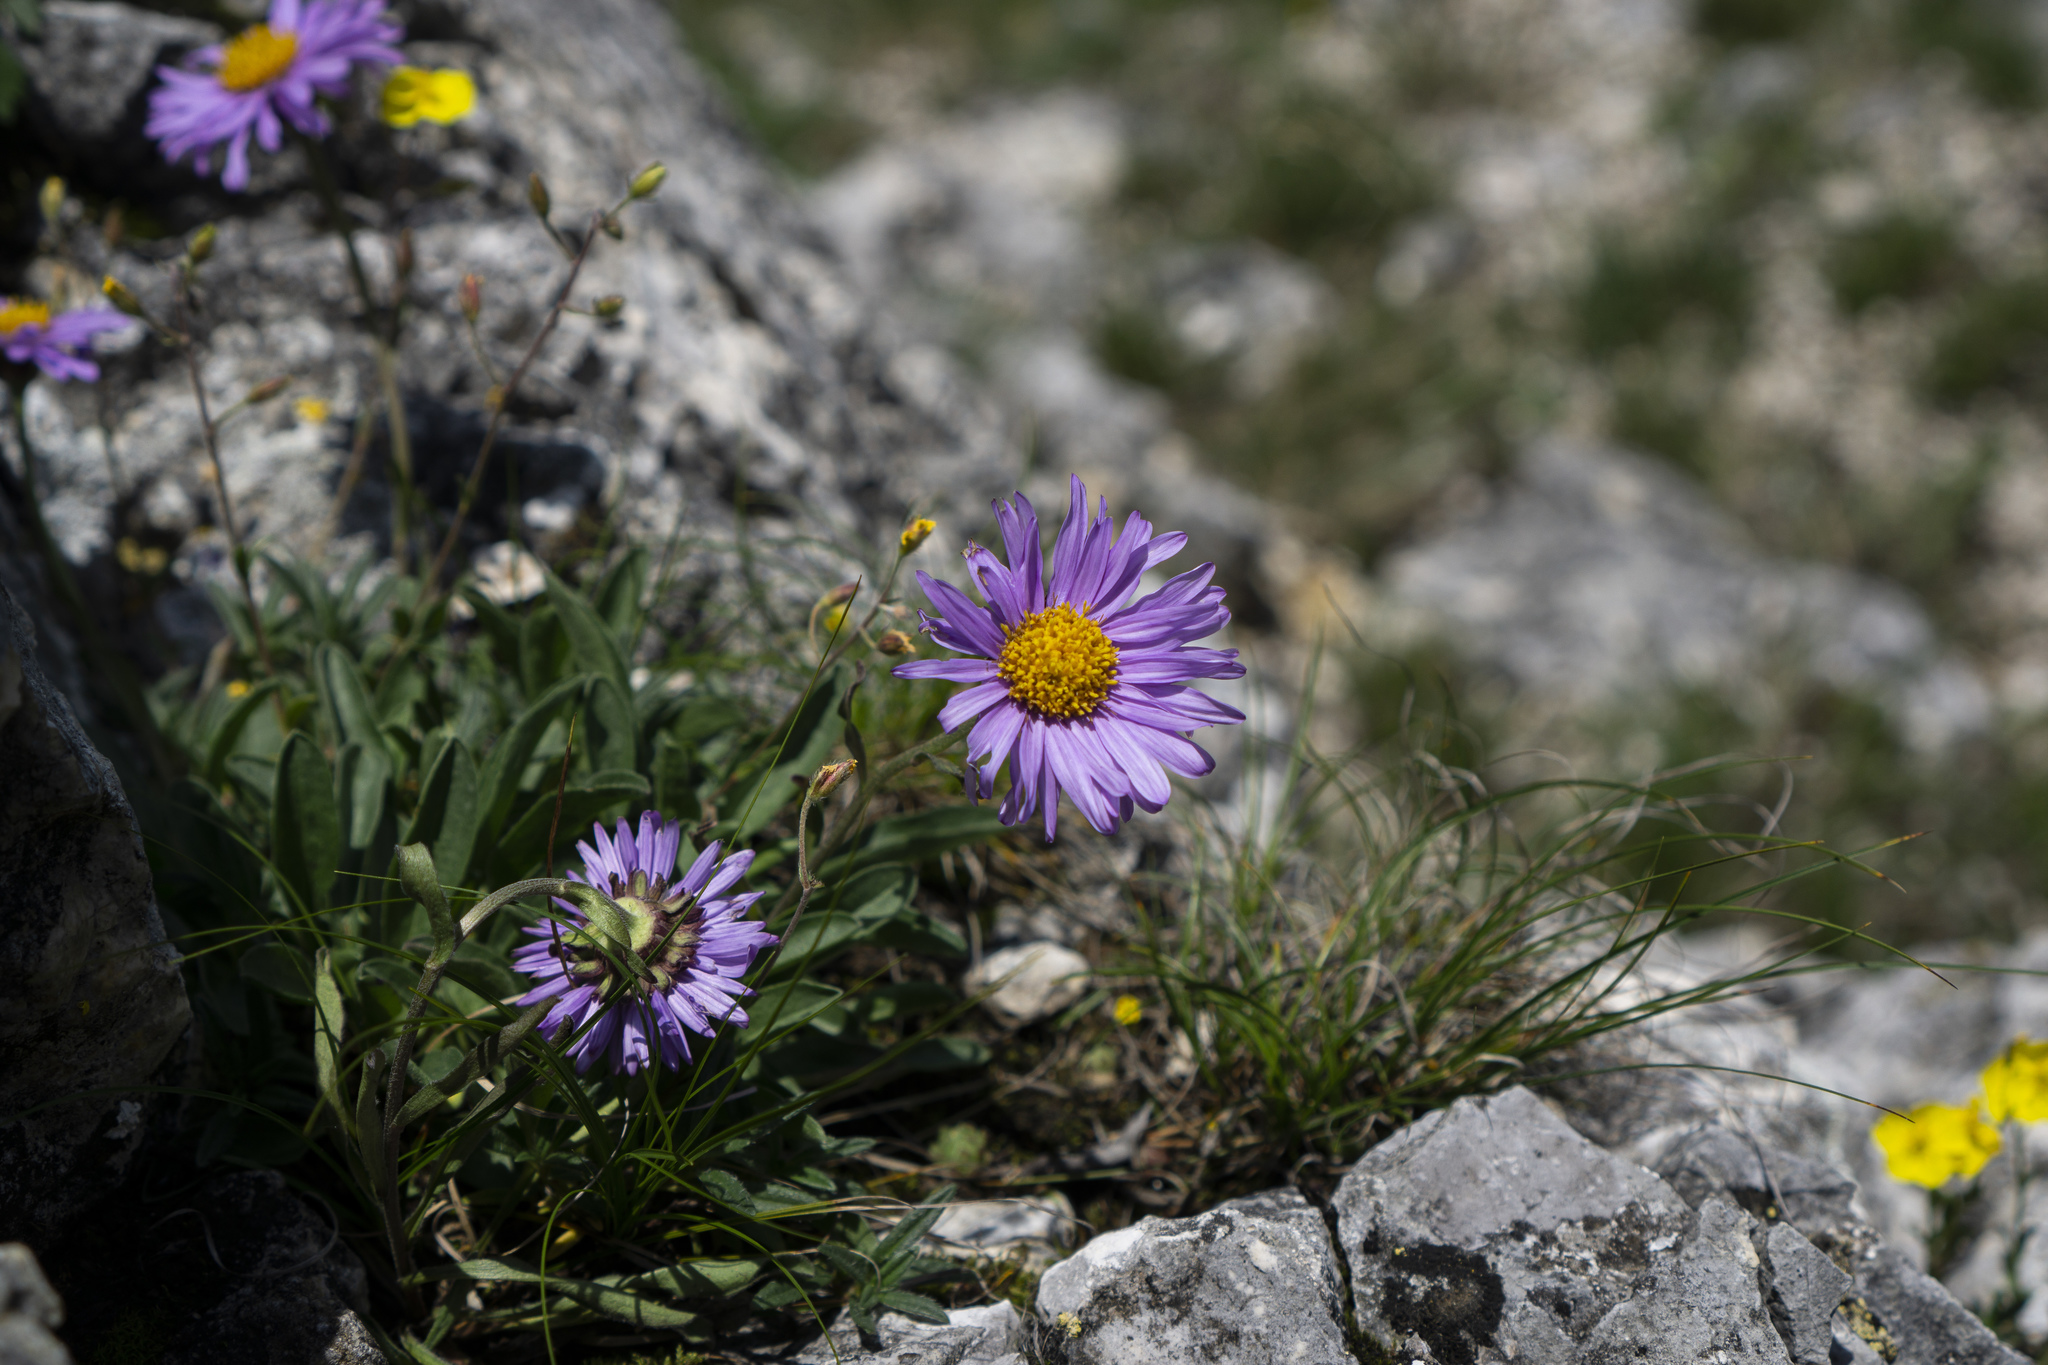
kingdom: Plantae
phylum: Tracheophyta
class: Magnoliopsida
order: Asterales
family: Asteraceae
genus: Aster
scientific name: Aster alpinus
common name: Alpine aster
